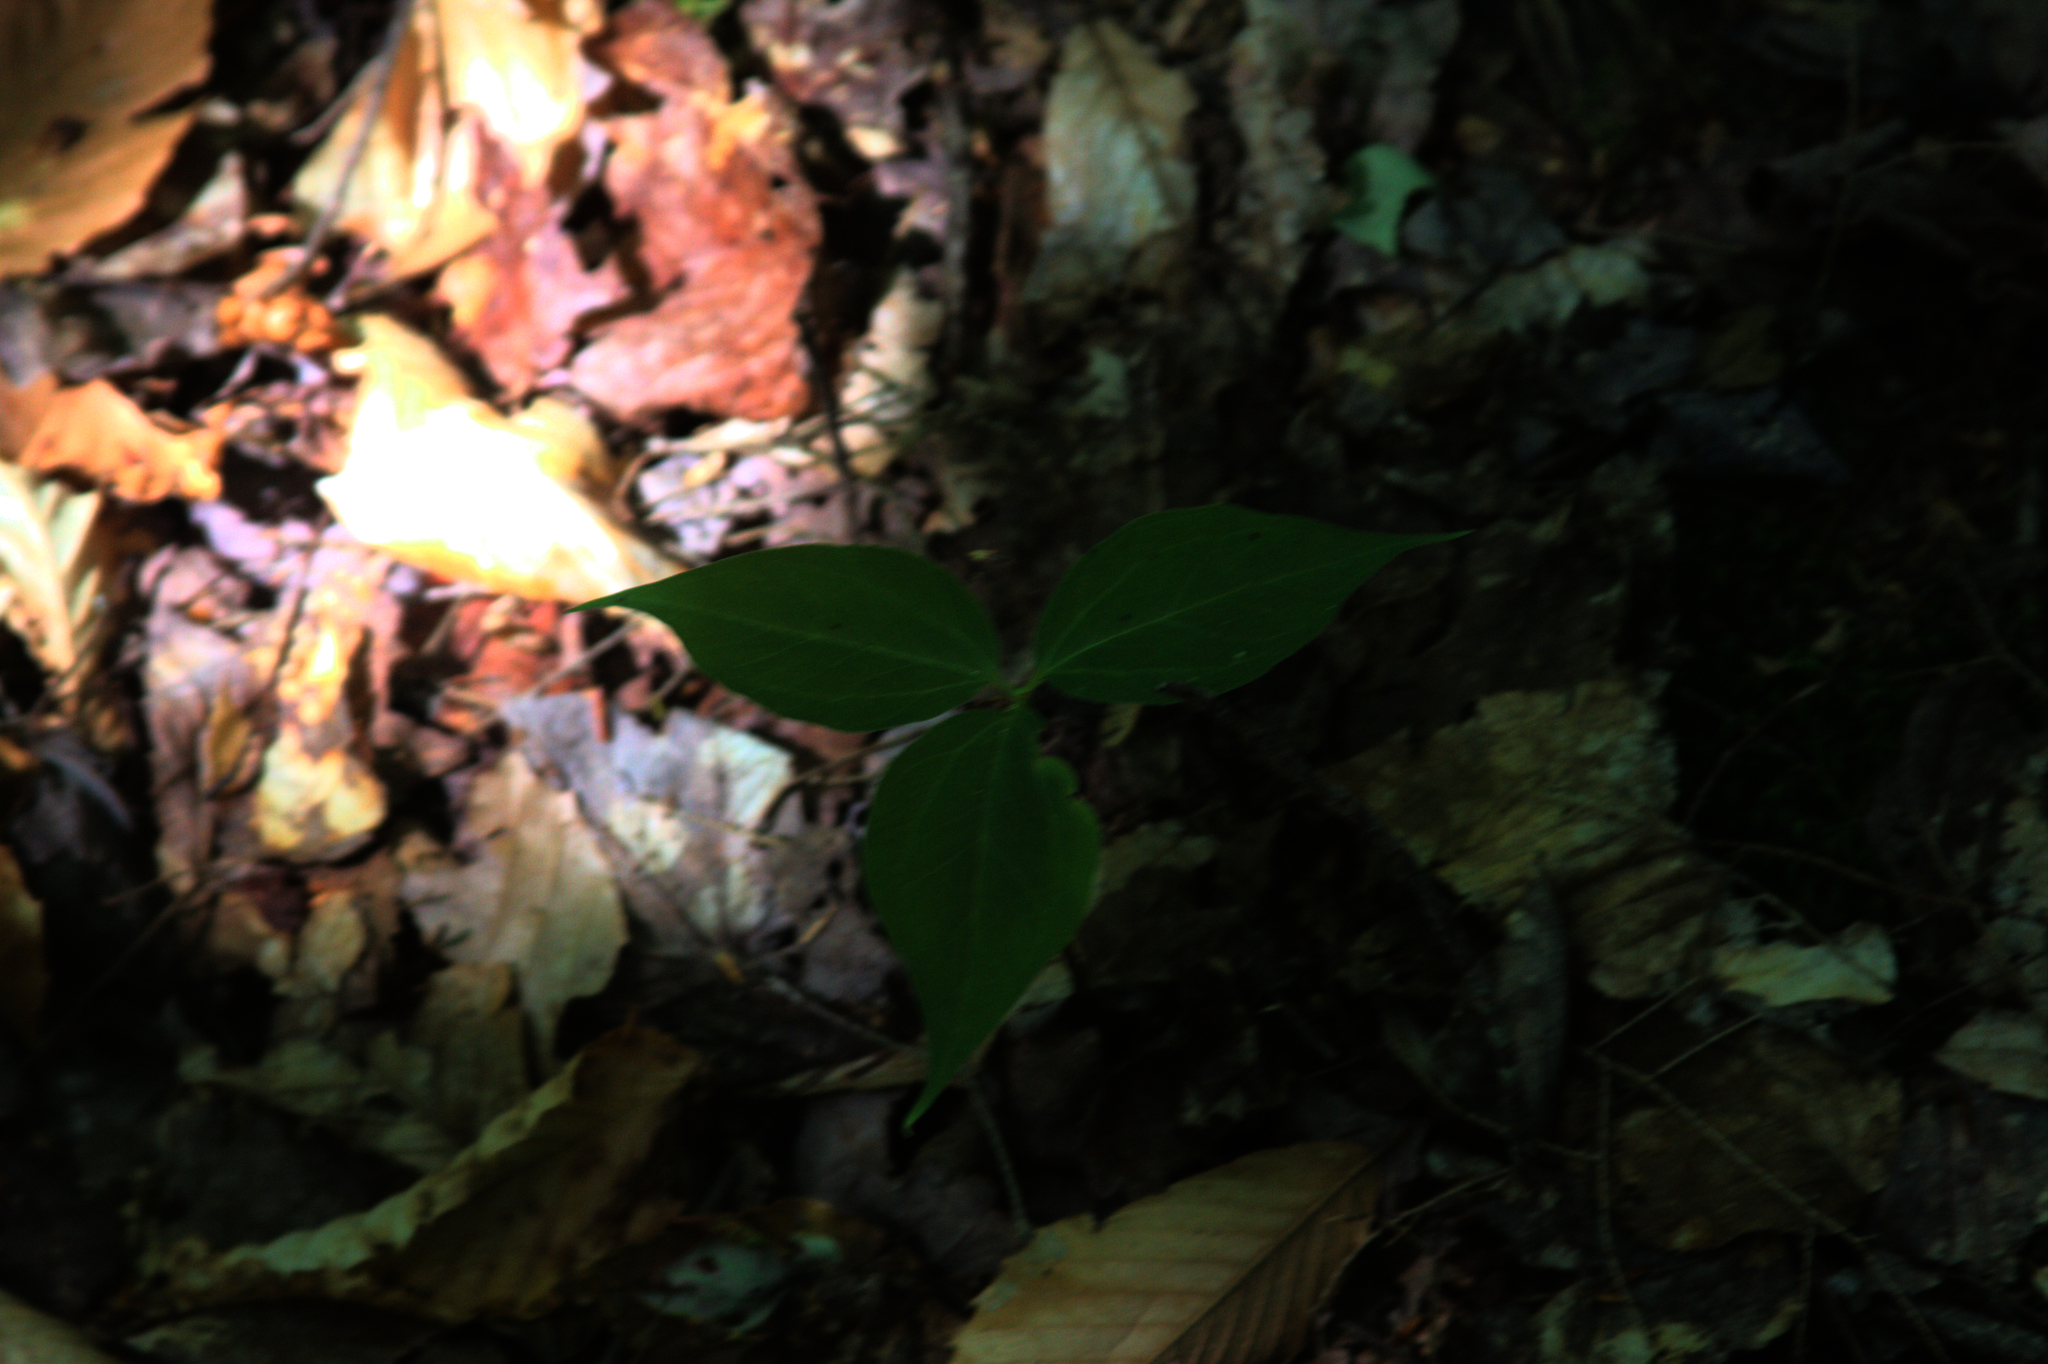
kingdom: Plantae
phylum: Tracheophyta
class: Liliopsida
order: Liliales
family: Melanthiaceae
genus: Trillium
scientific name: Trillium undulatum
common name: Paint trillium
